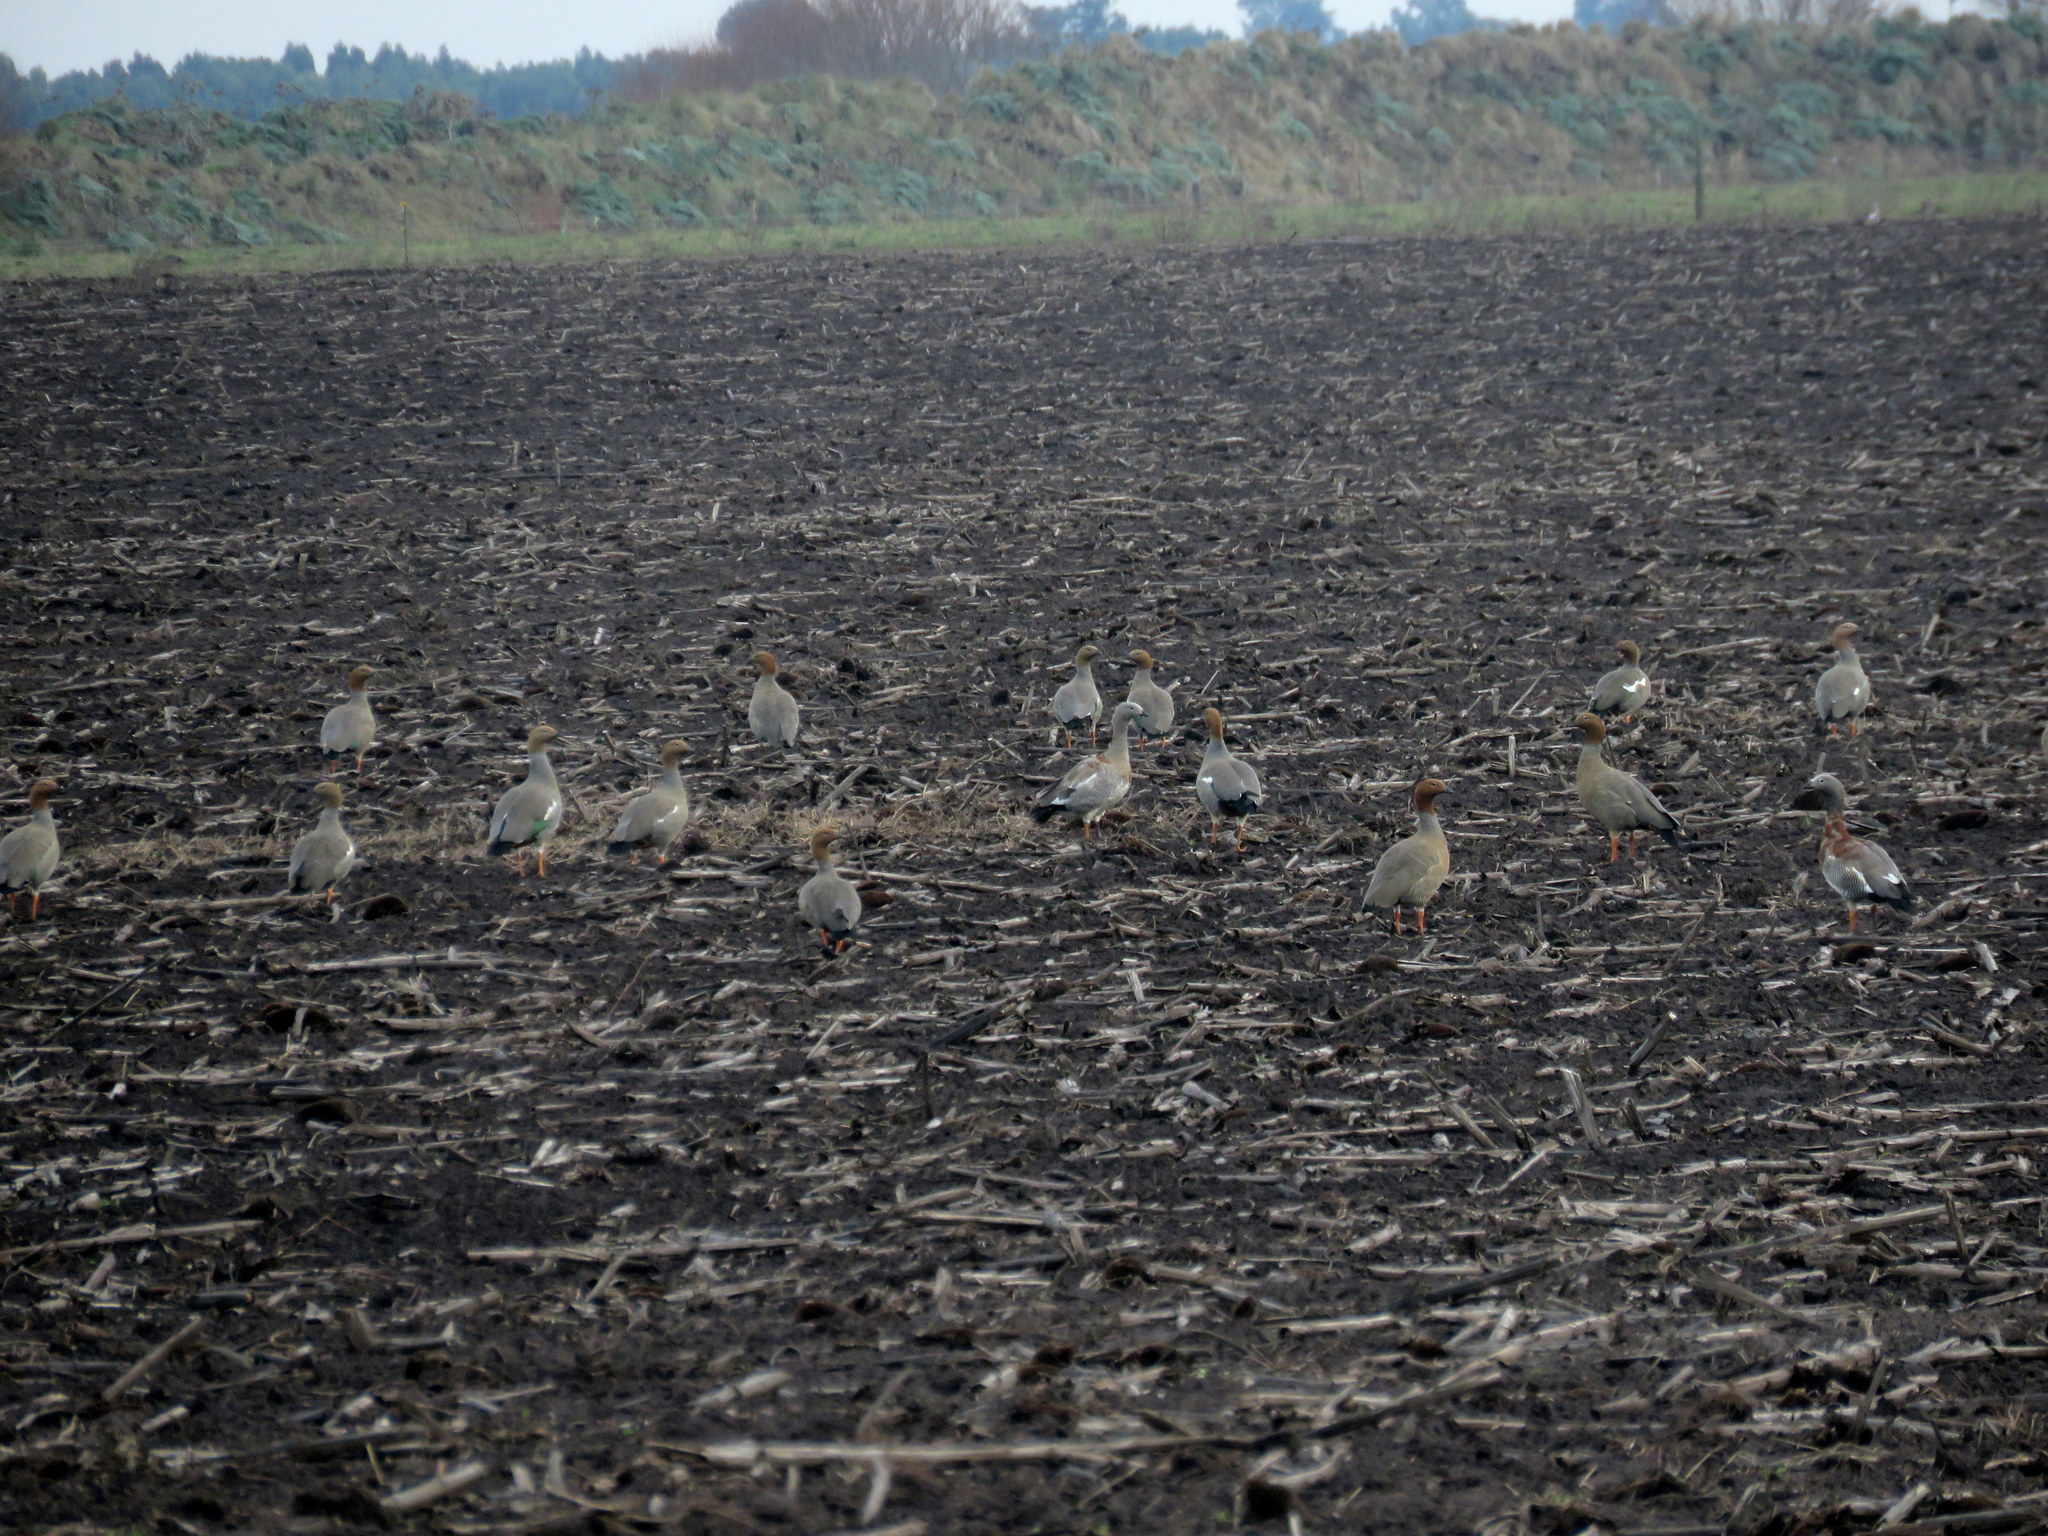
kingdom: Animalia
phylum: Chordata
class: Aves
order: Anseriformes
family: Anatidae
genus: Chloephaga
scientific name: Chloephaga rubidiceps
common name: Ruddy-headed goose
